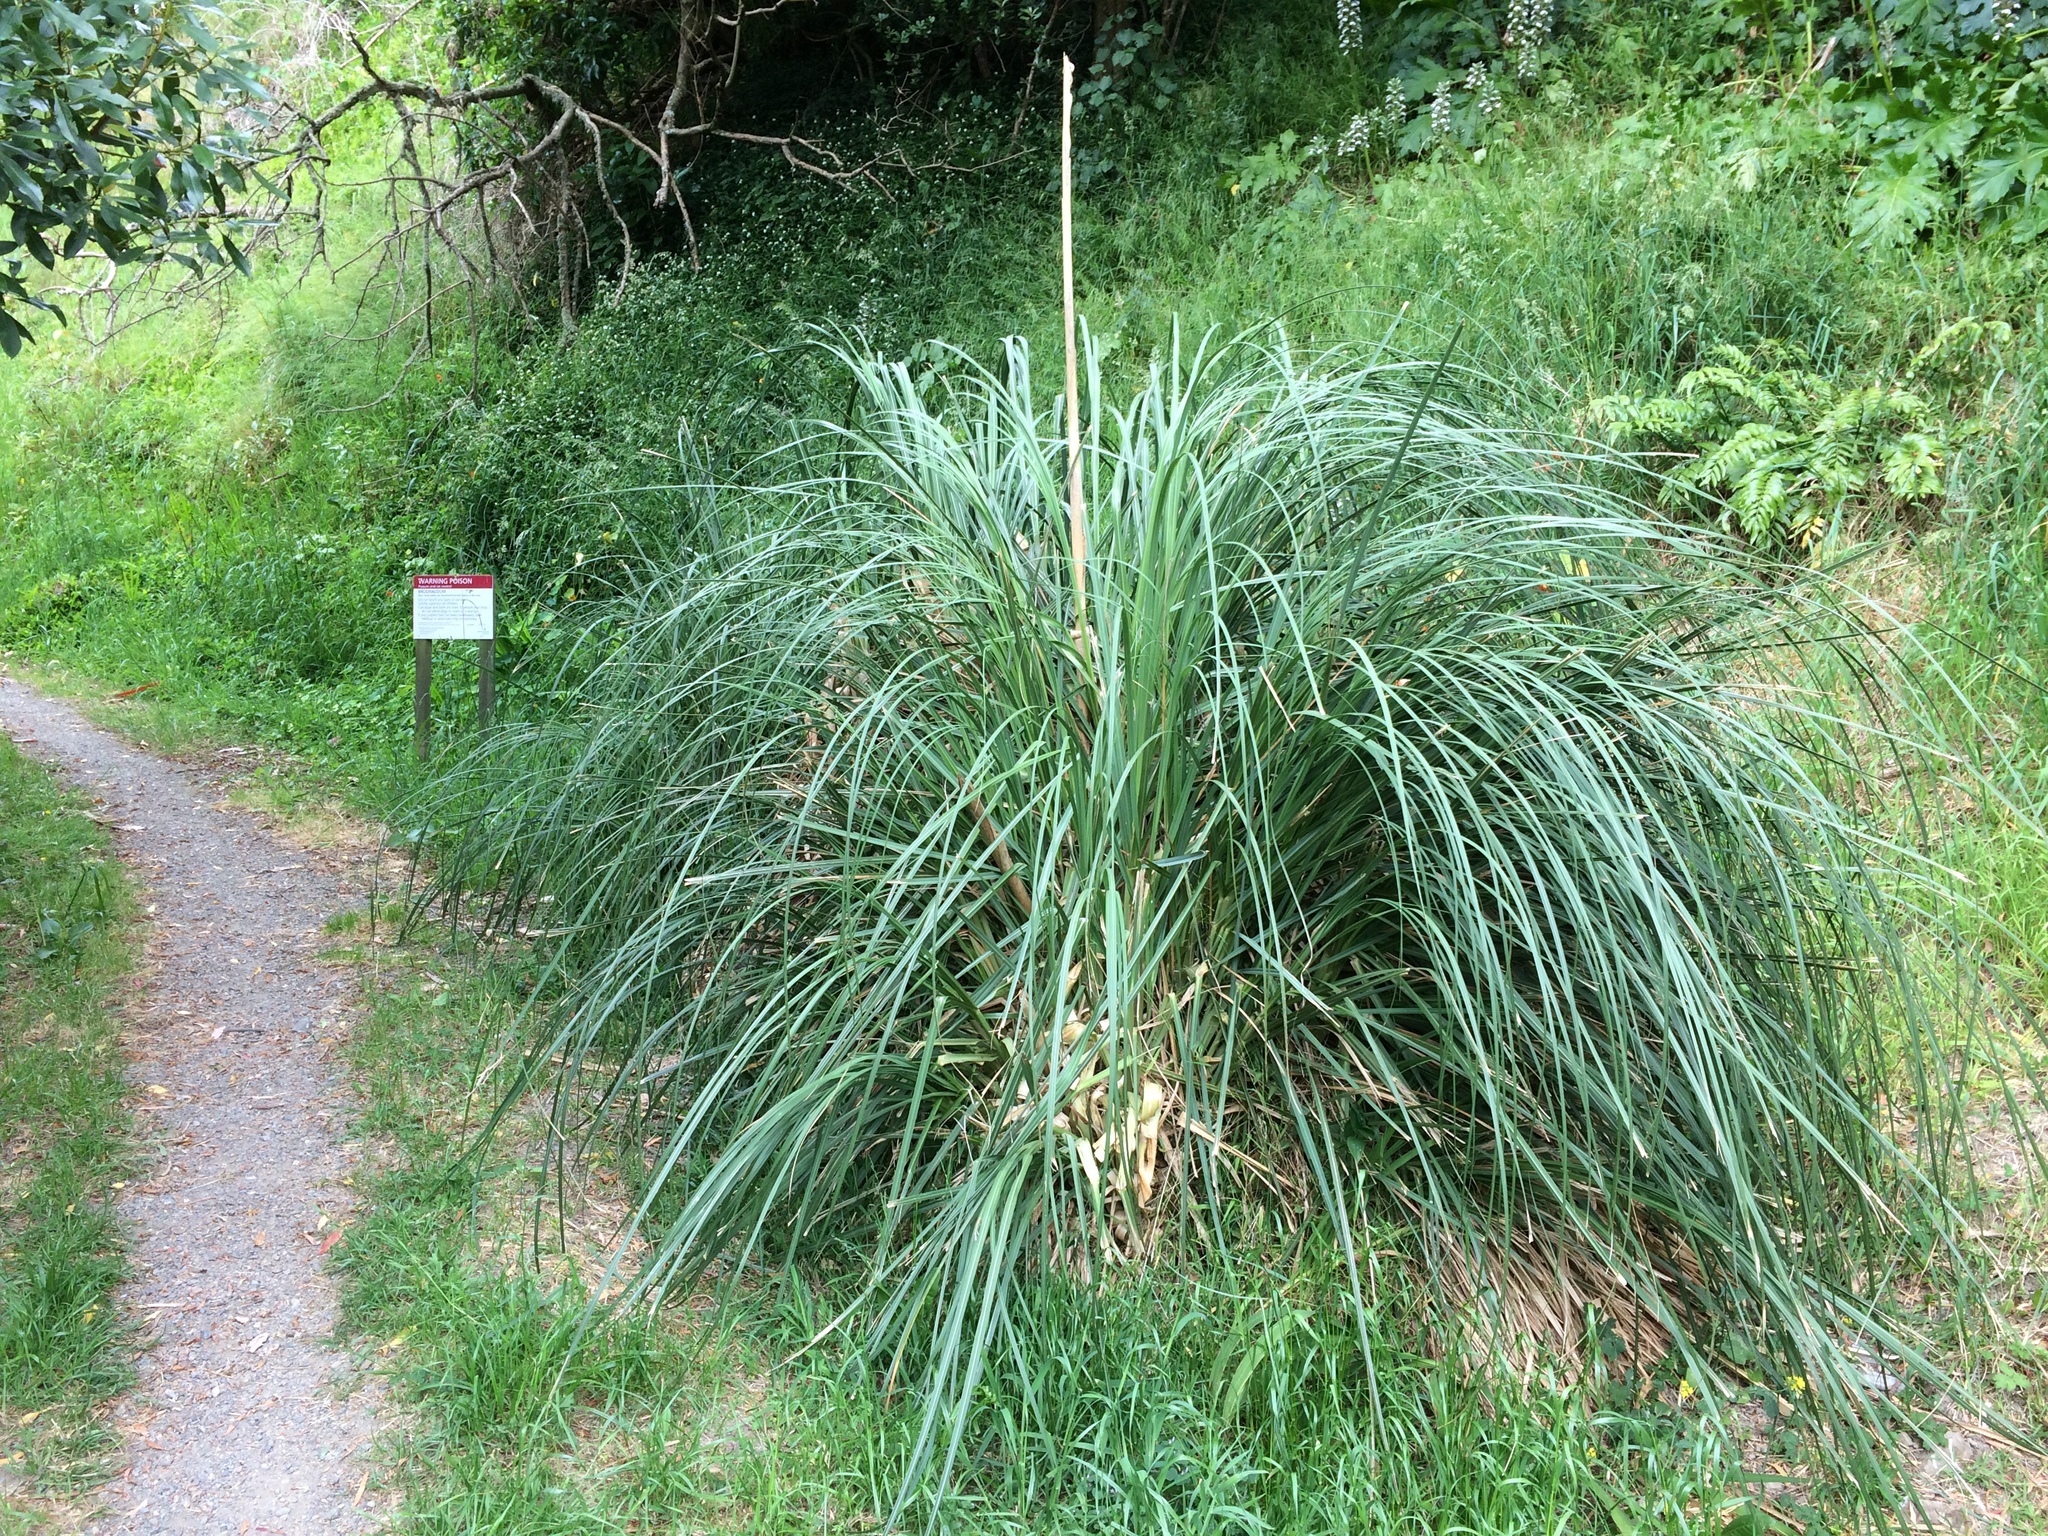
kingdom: Plantae
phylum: Tracheophyta
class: Liliopsida
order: Poales
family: Poaceae
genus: Cortaderia
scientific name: Cortaderia jubata
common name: Purple pampas grass
